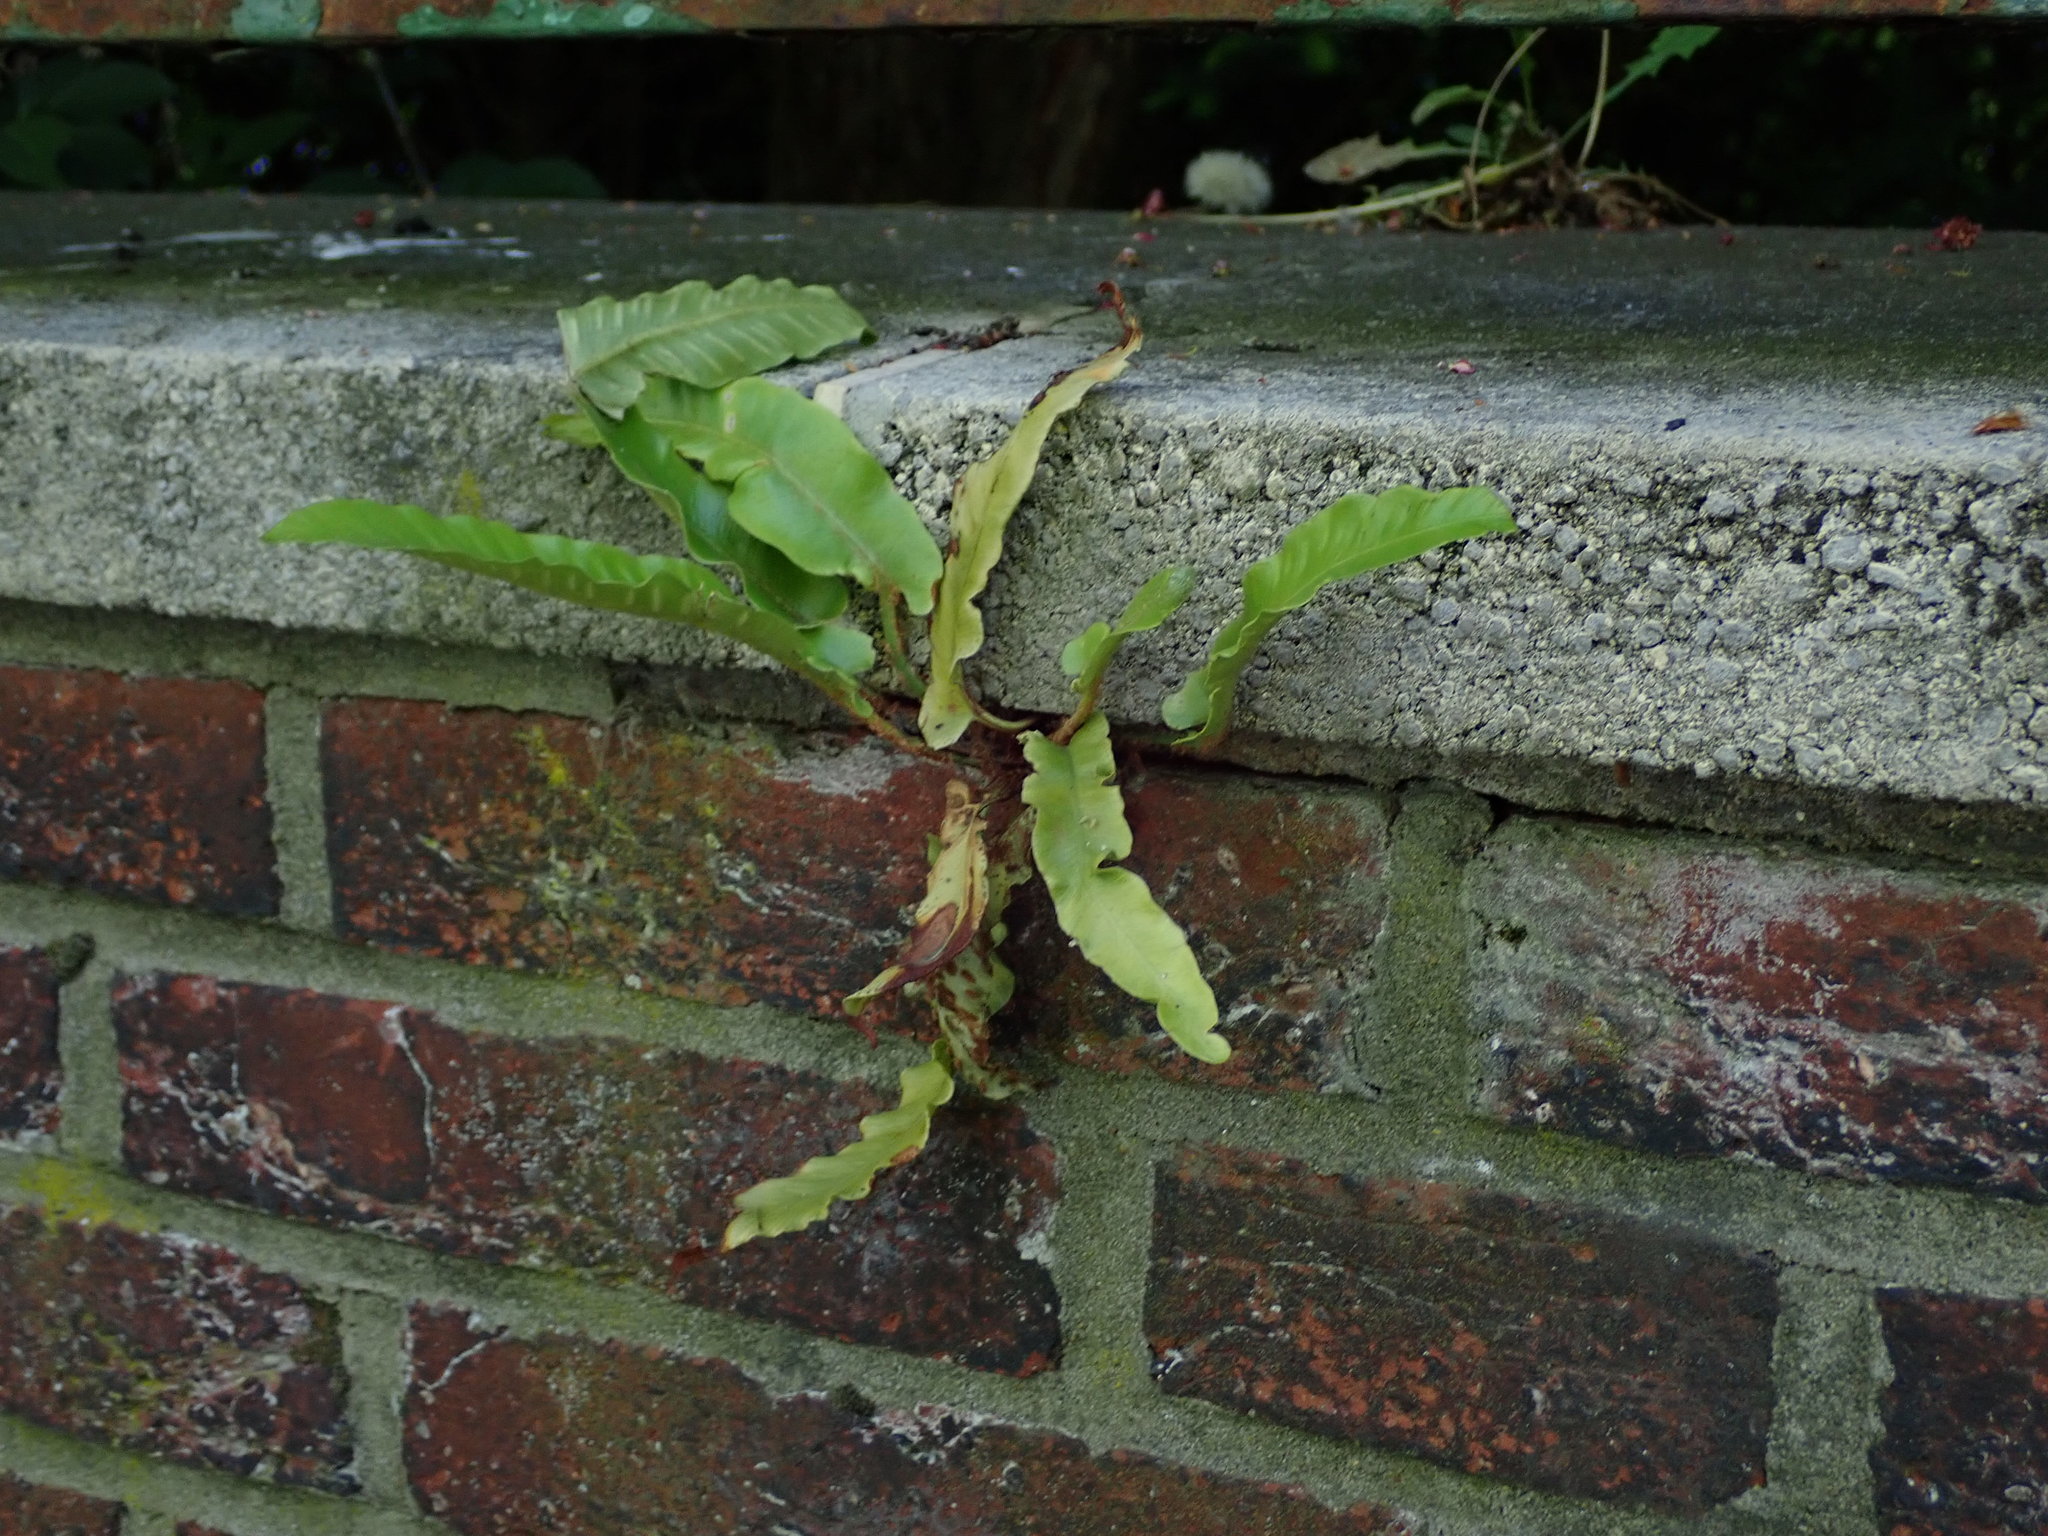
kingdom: Plantae
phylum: Tracheophyta
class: Polypodiopsida
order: Polypodiales
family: Aspleniaceae
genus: Asplenium
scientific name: Asplenium scolopendrium
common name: Hart's-tongue fern
